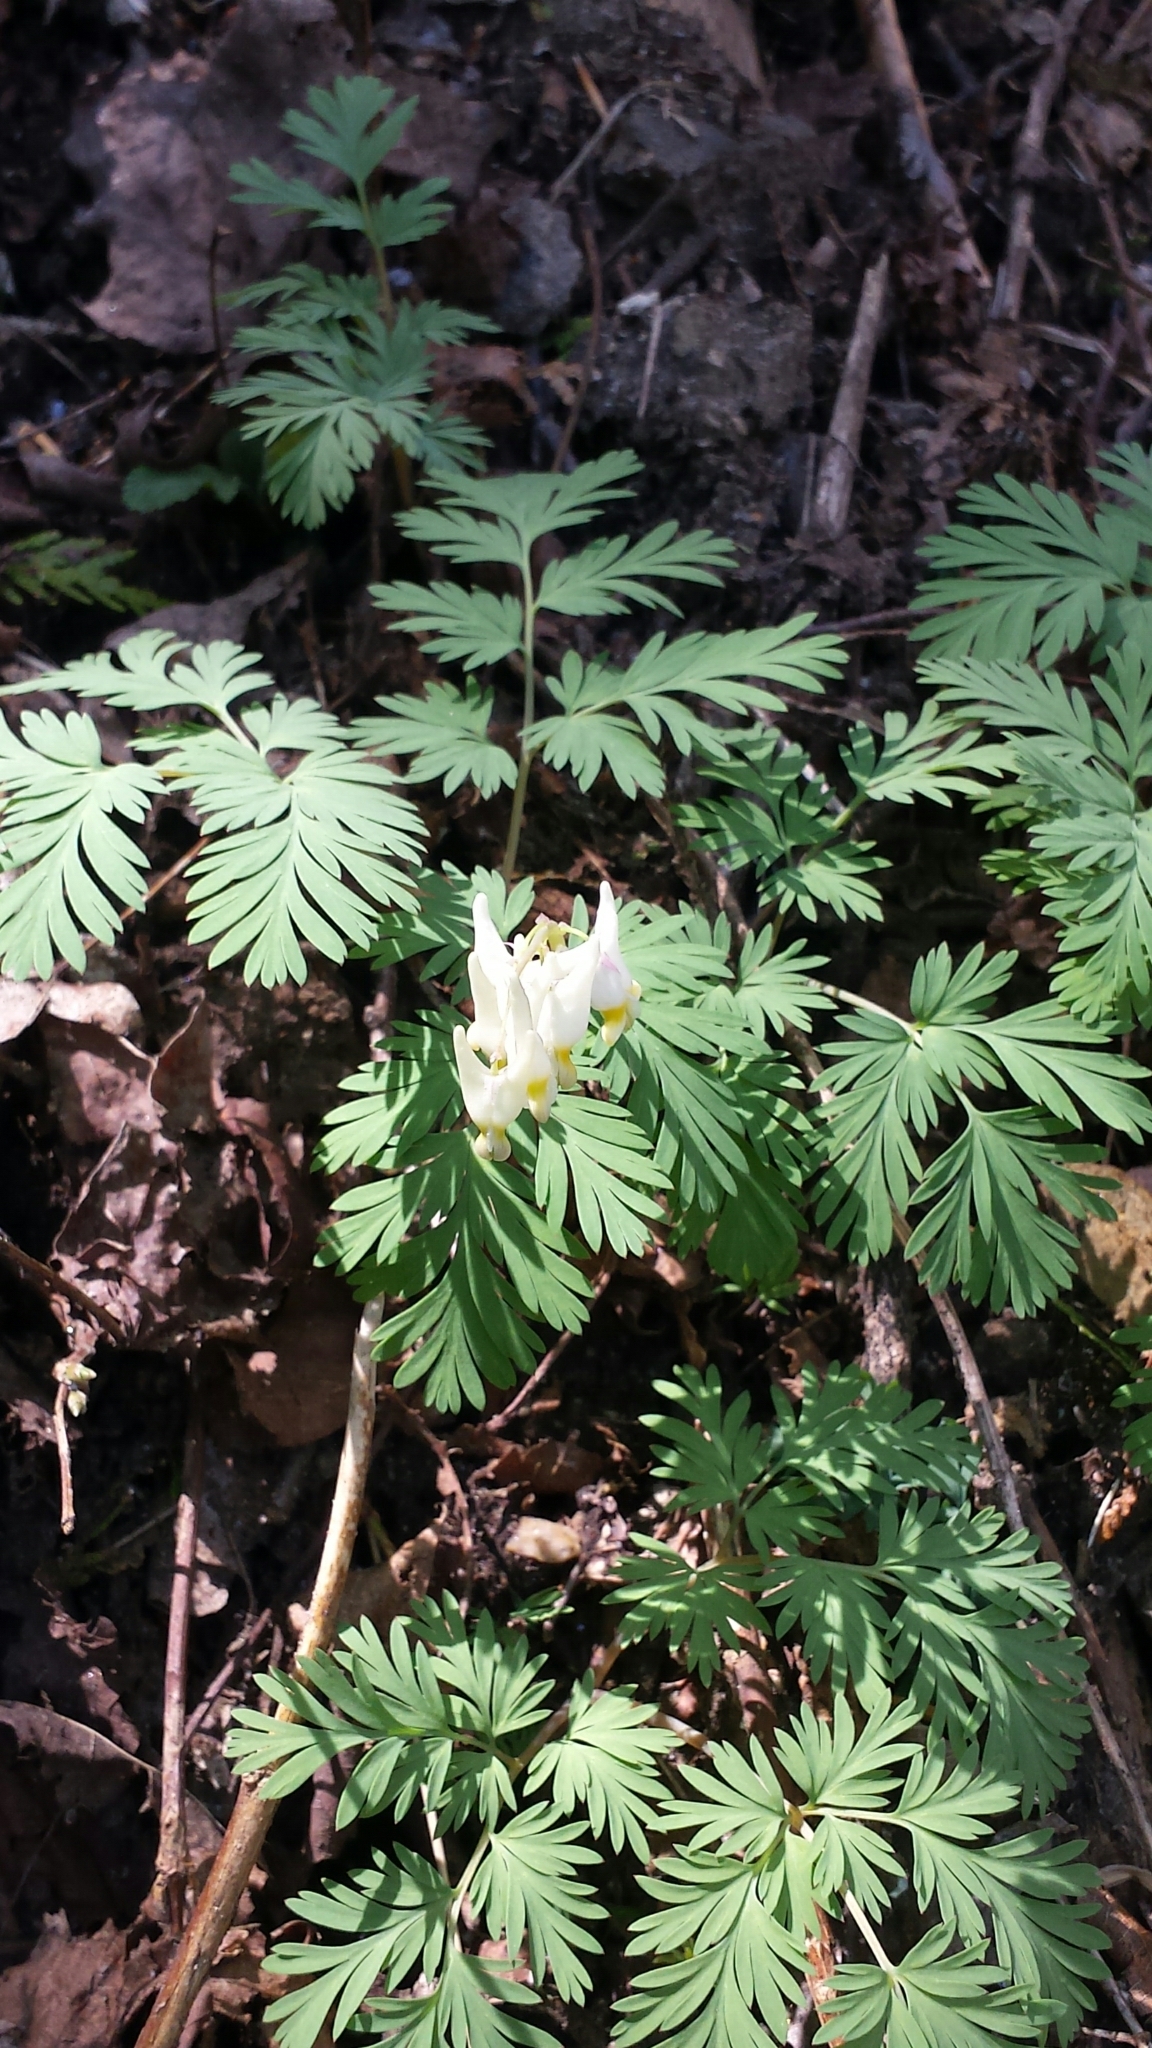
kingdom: Plantae
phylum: Tracheophyta
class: Magnoliopsida
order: Ranunculales
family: Papaveraceae
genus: Dicentra
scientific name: Dicentra cucullaria
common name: Dutchman's breeches
